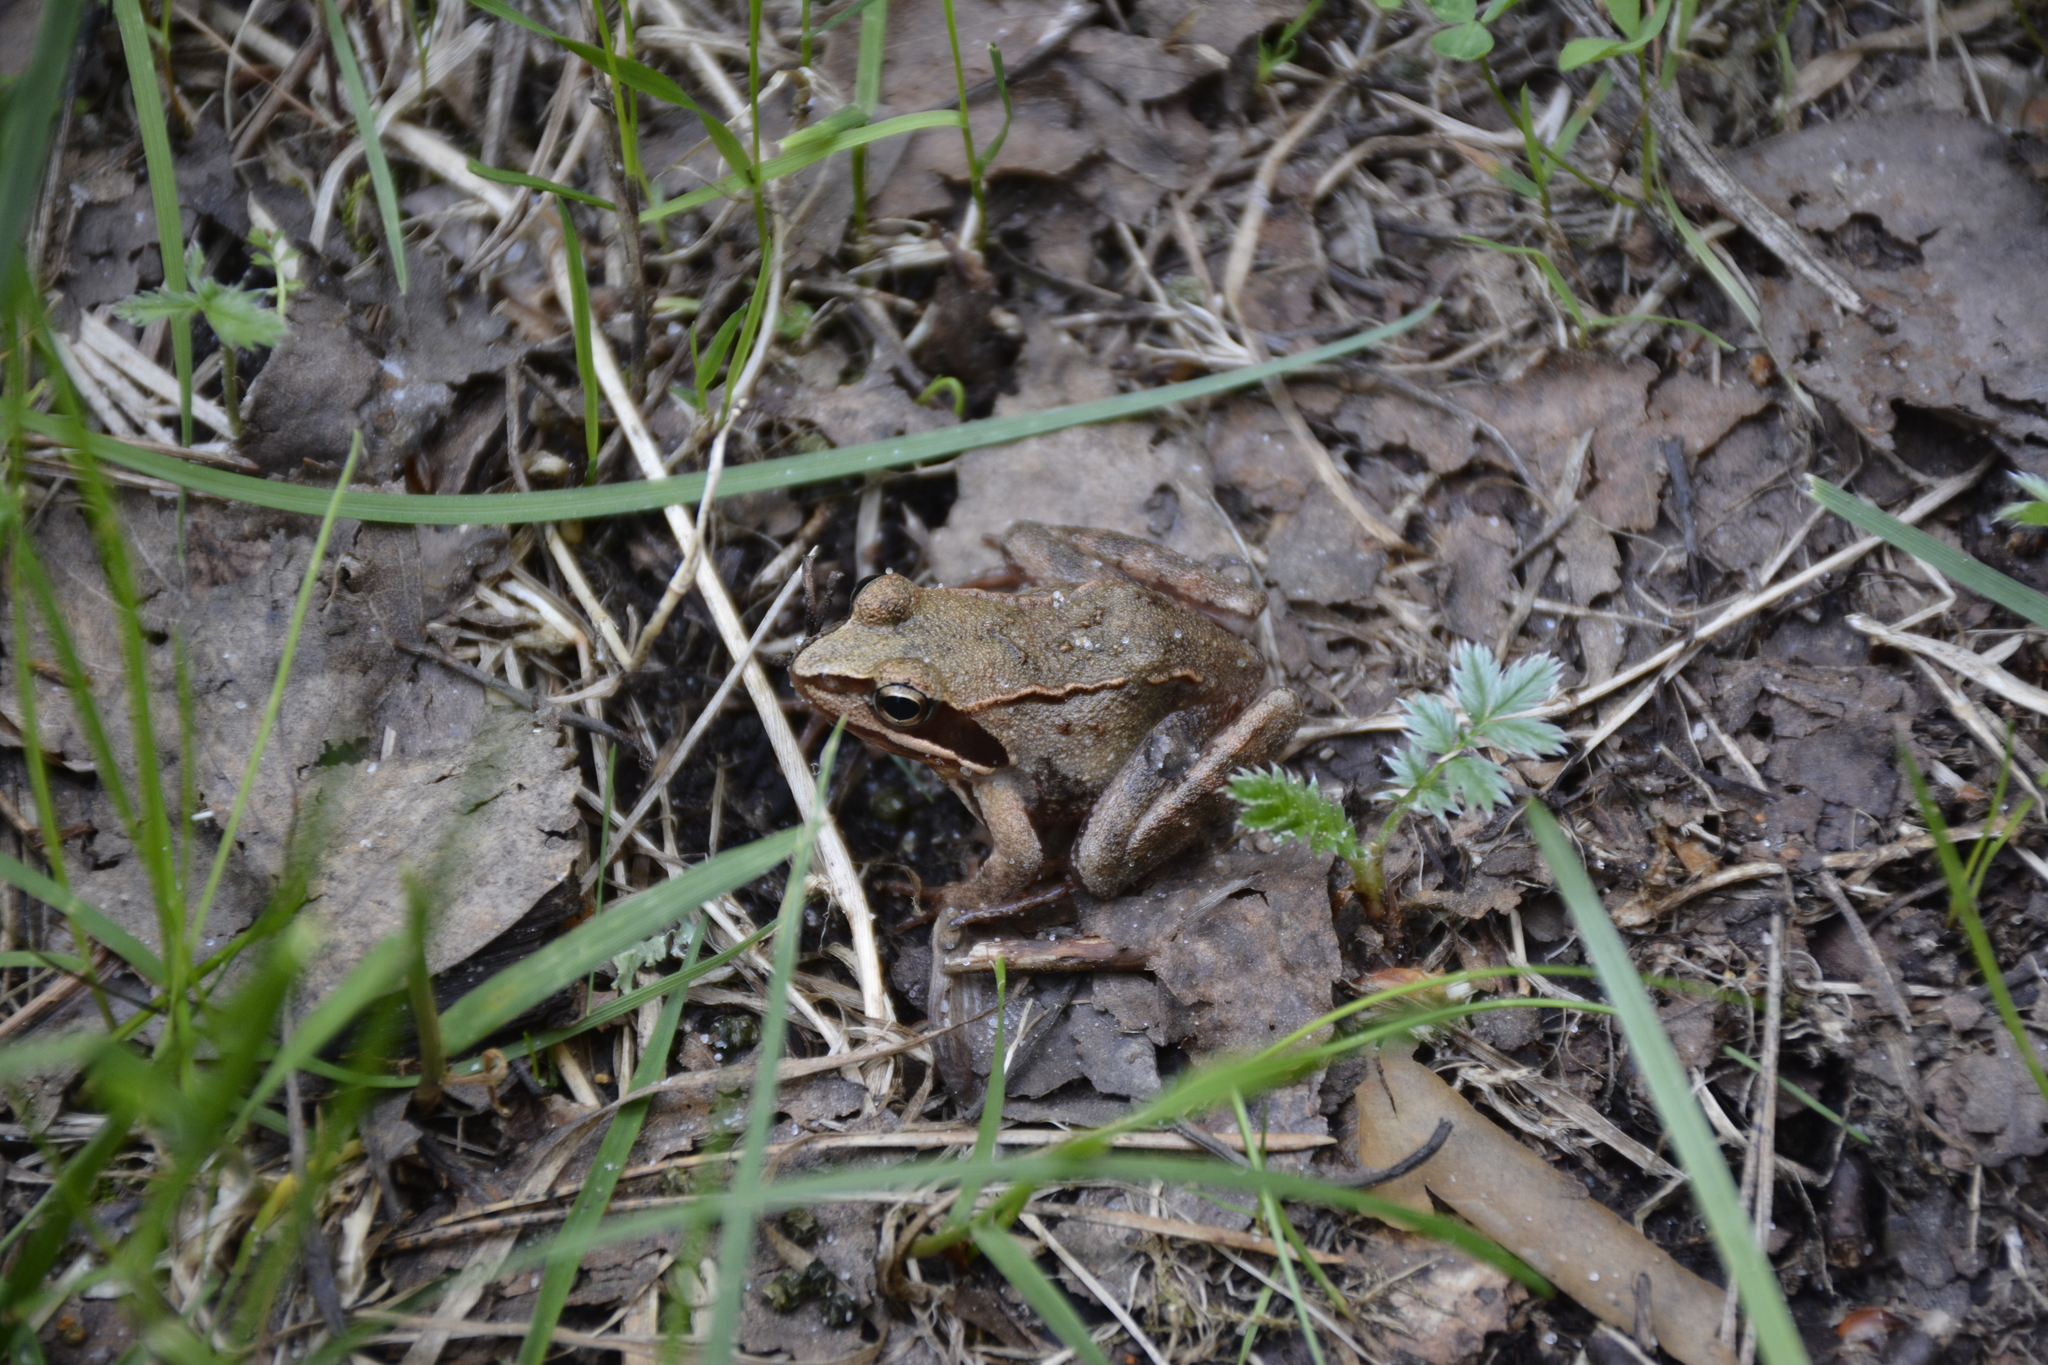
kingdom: Animalia
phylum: Chordata
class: Amphibia
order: Anura
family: Ranidae
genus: Rana
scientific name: Rana arvalis
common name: Moor frog
